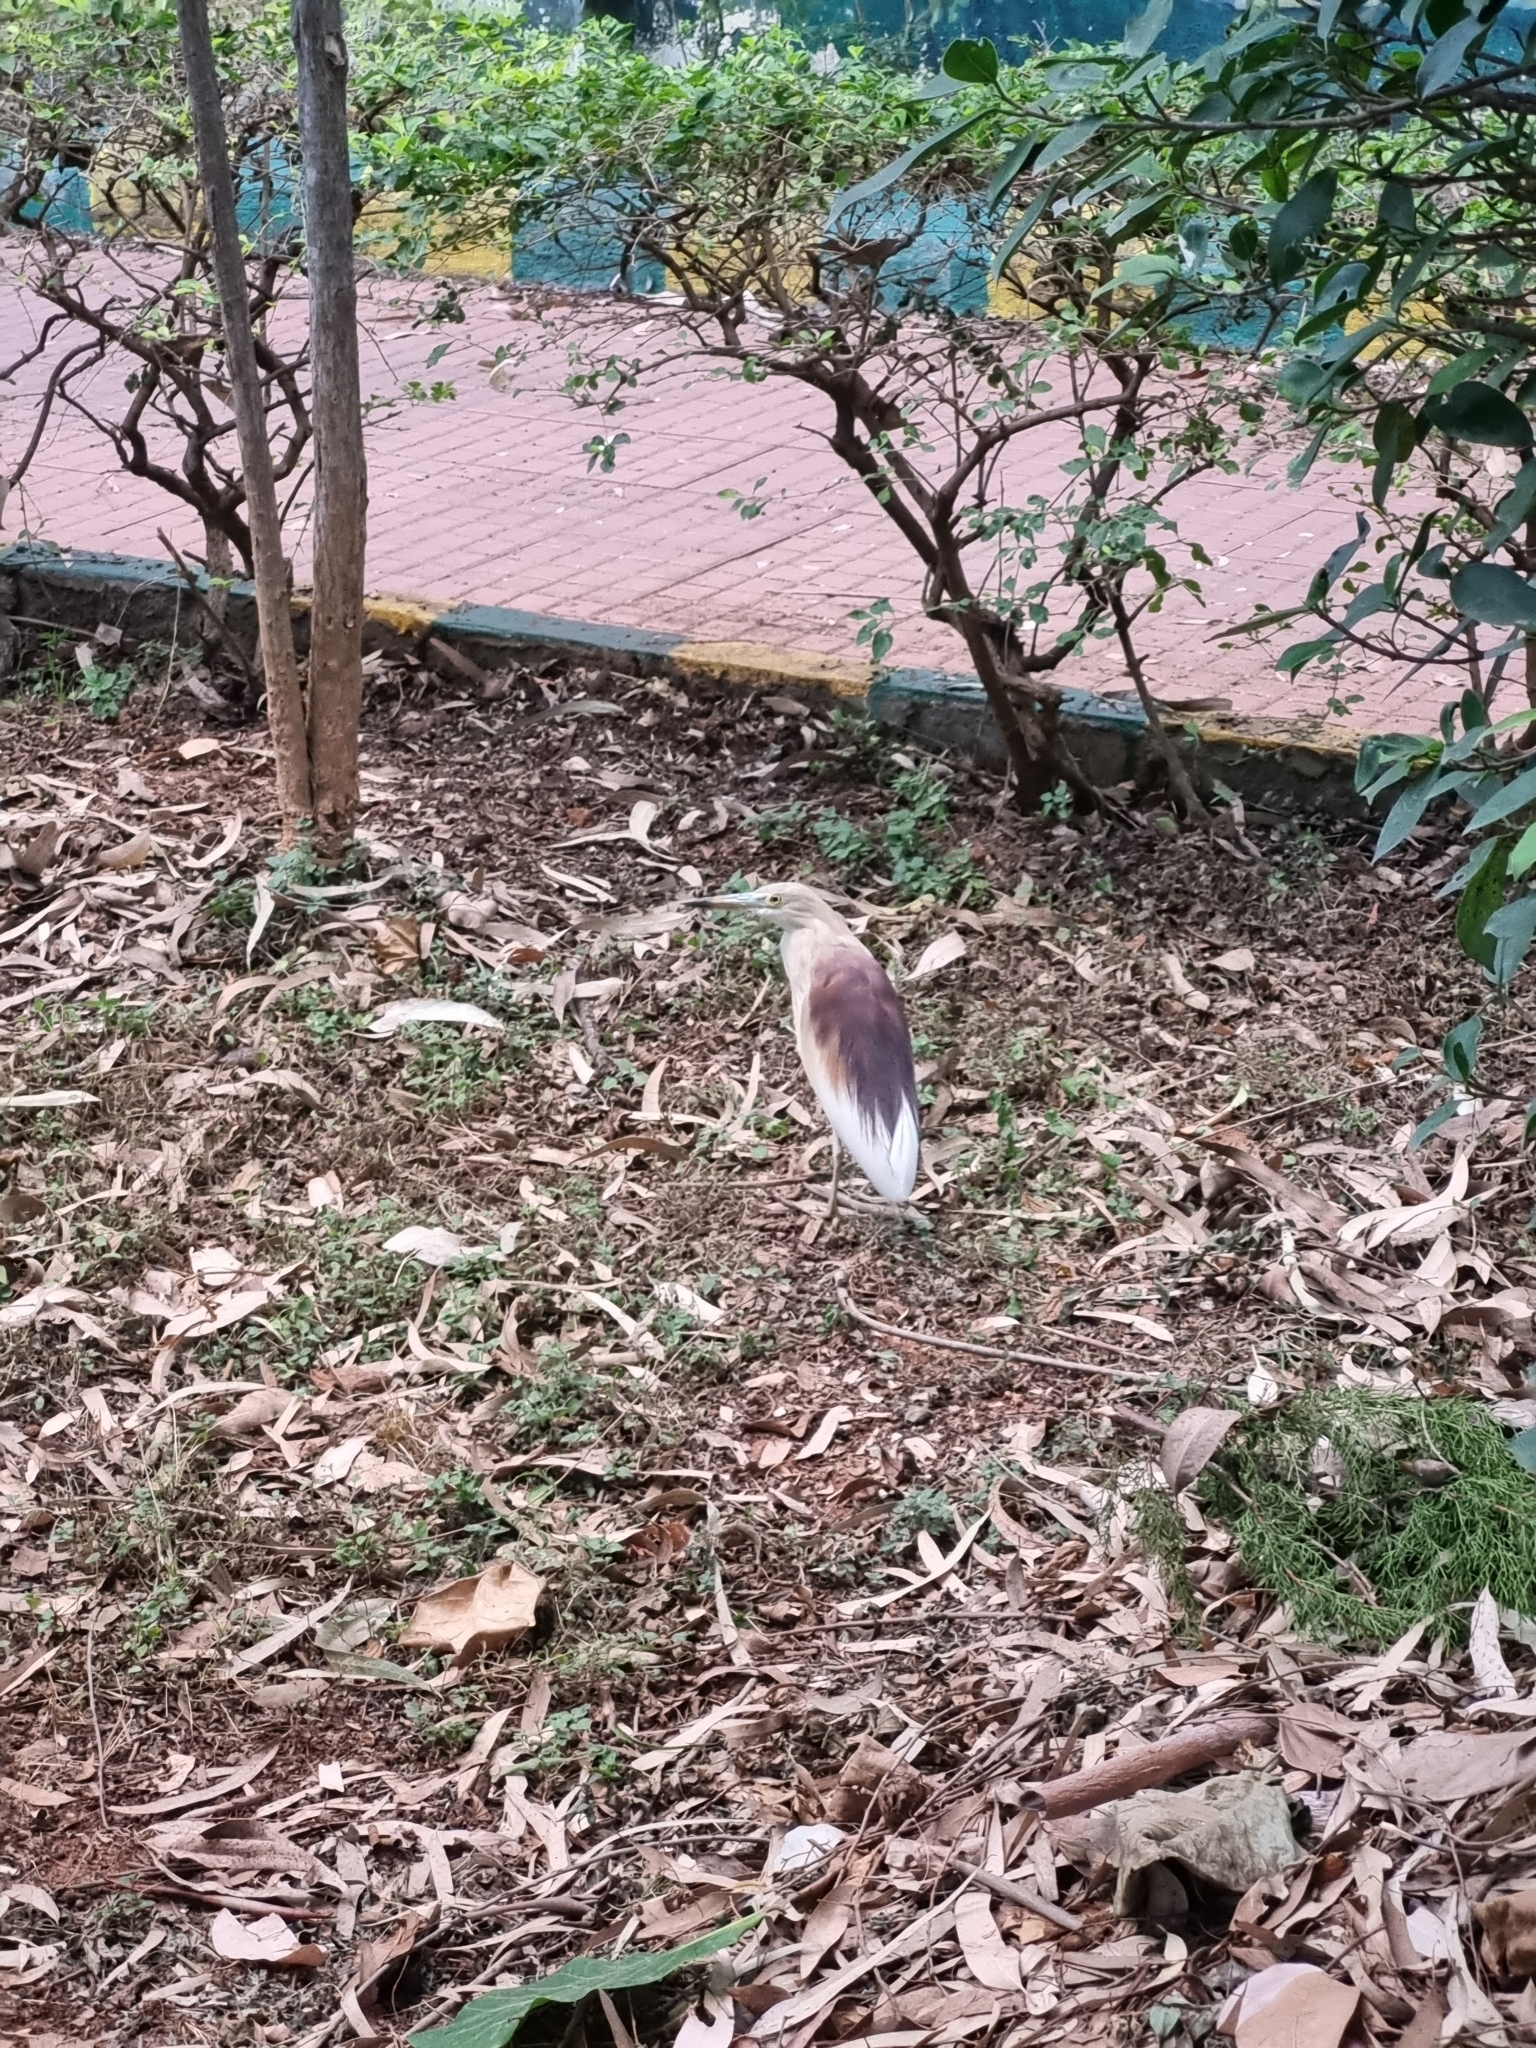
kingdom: Animalia
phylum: Chordata
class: Aves
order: Pelecaniformes
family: Ardeidae
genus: Ardeola
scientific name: Ardeola grayii
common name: Indian pond heron
